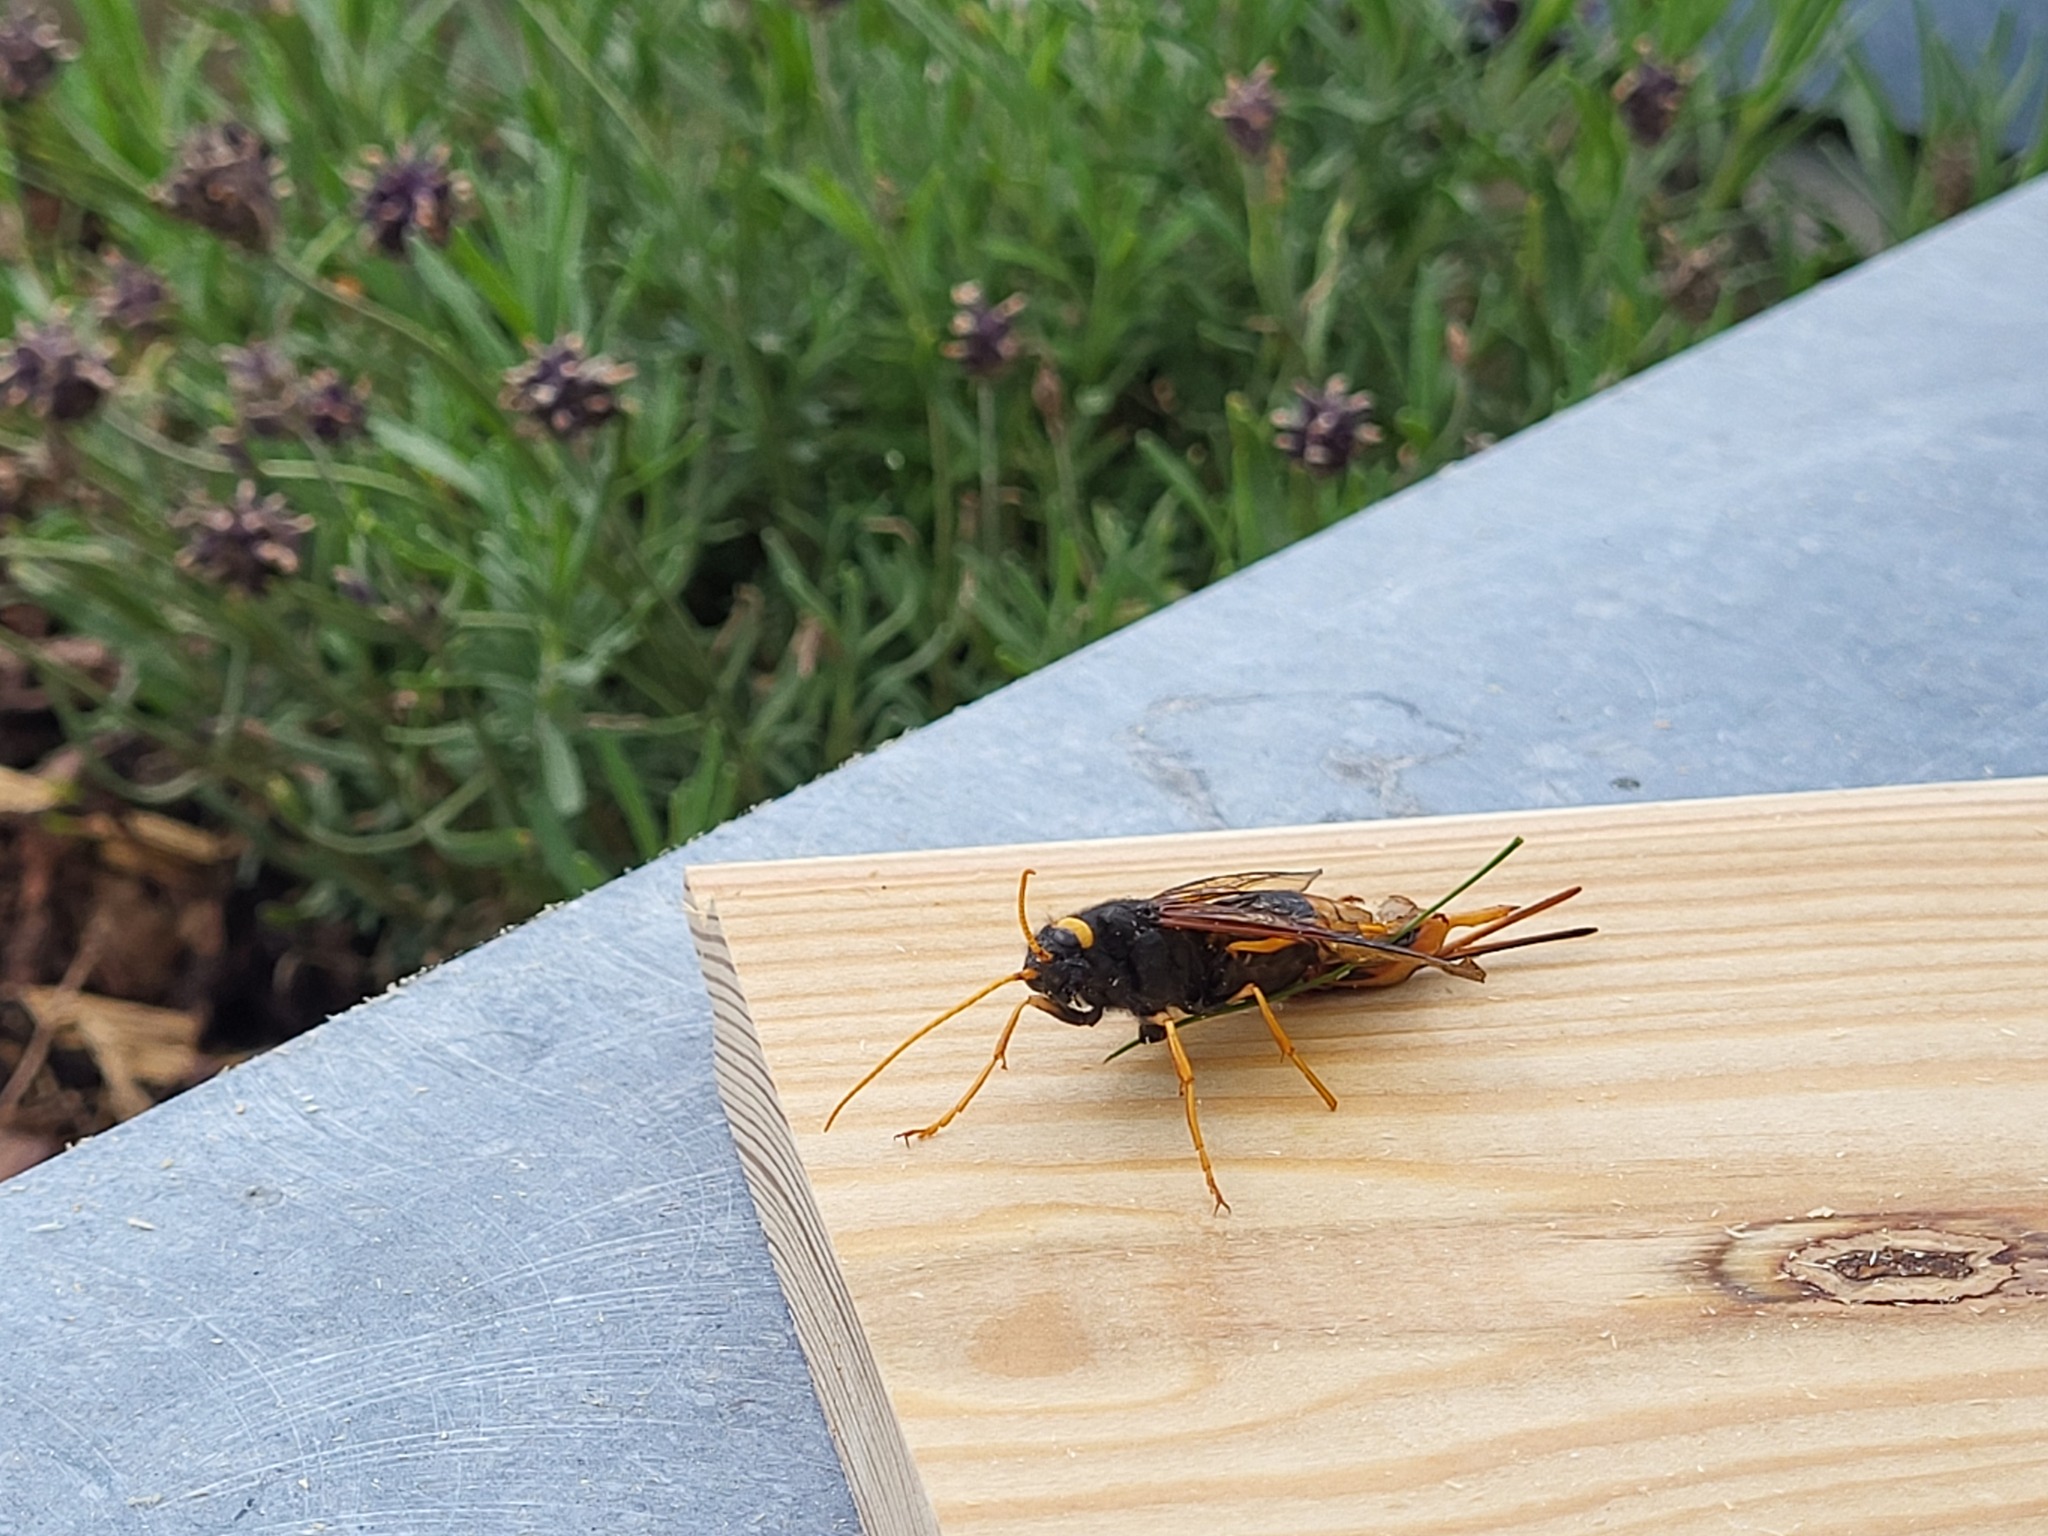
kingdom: Animalia
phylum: Arthropoda
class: Insecta
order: Hymenoptera
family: Siricidae
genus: Urocerus
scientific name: Urocerus gigas
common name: Giant woodwasp
